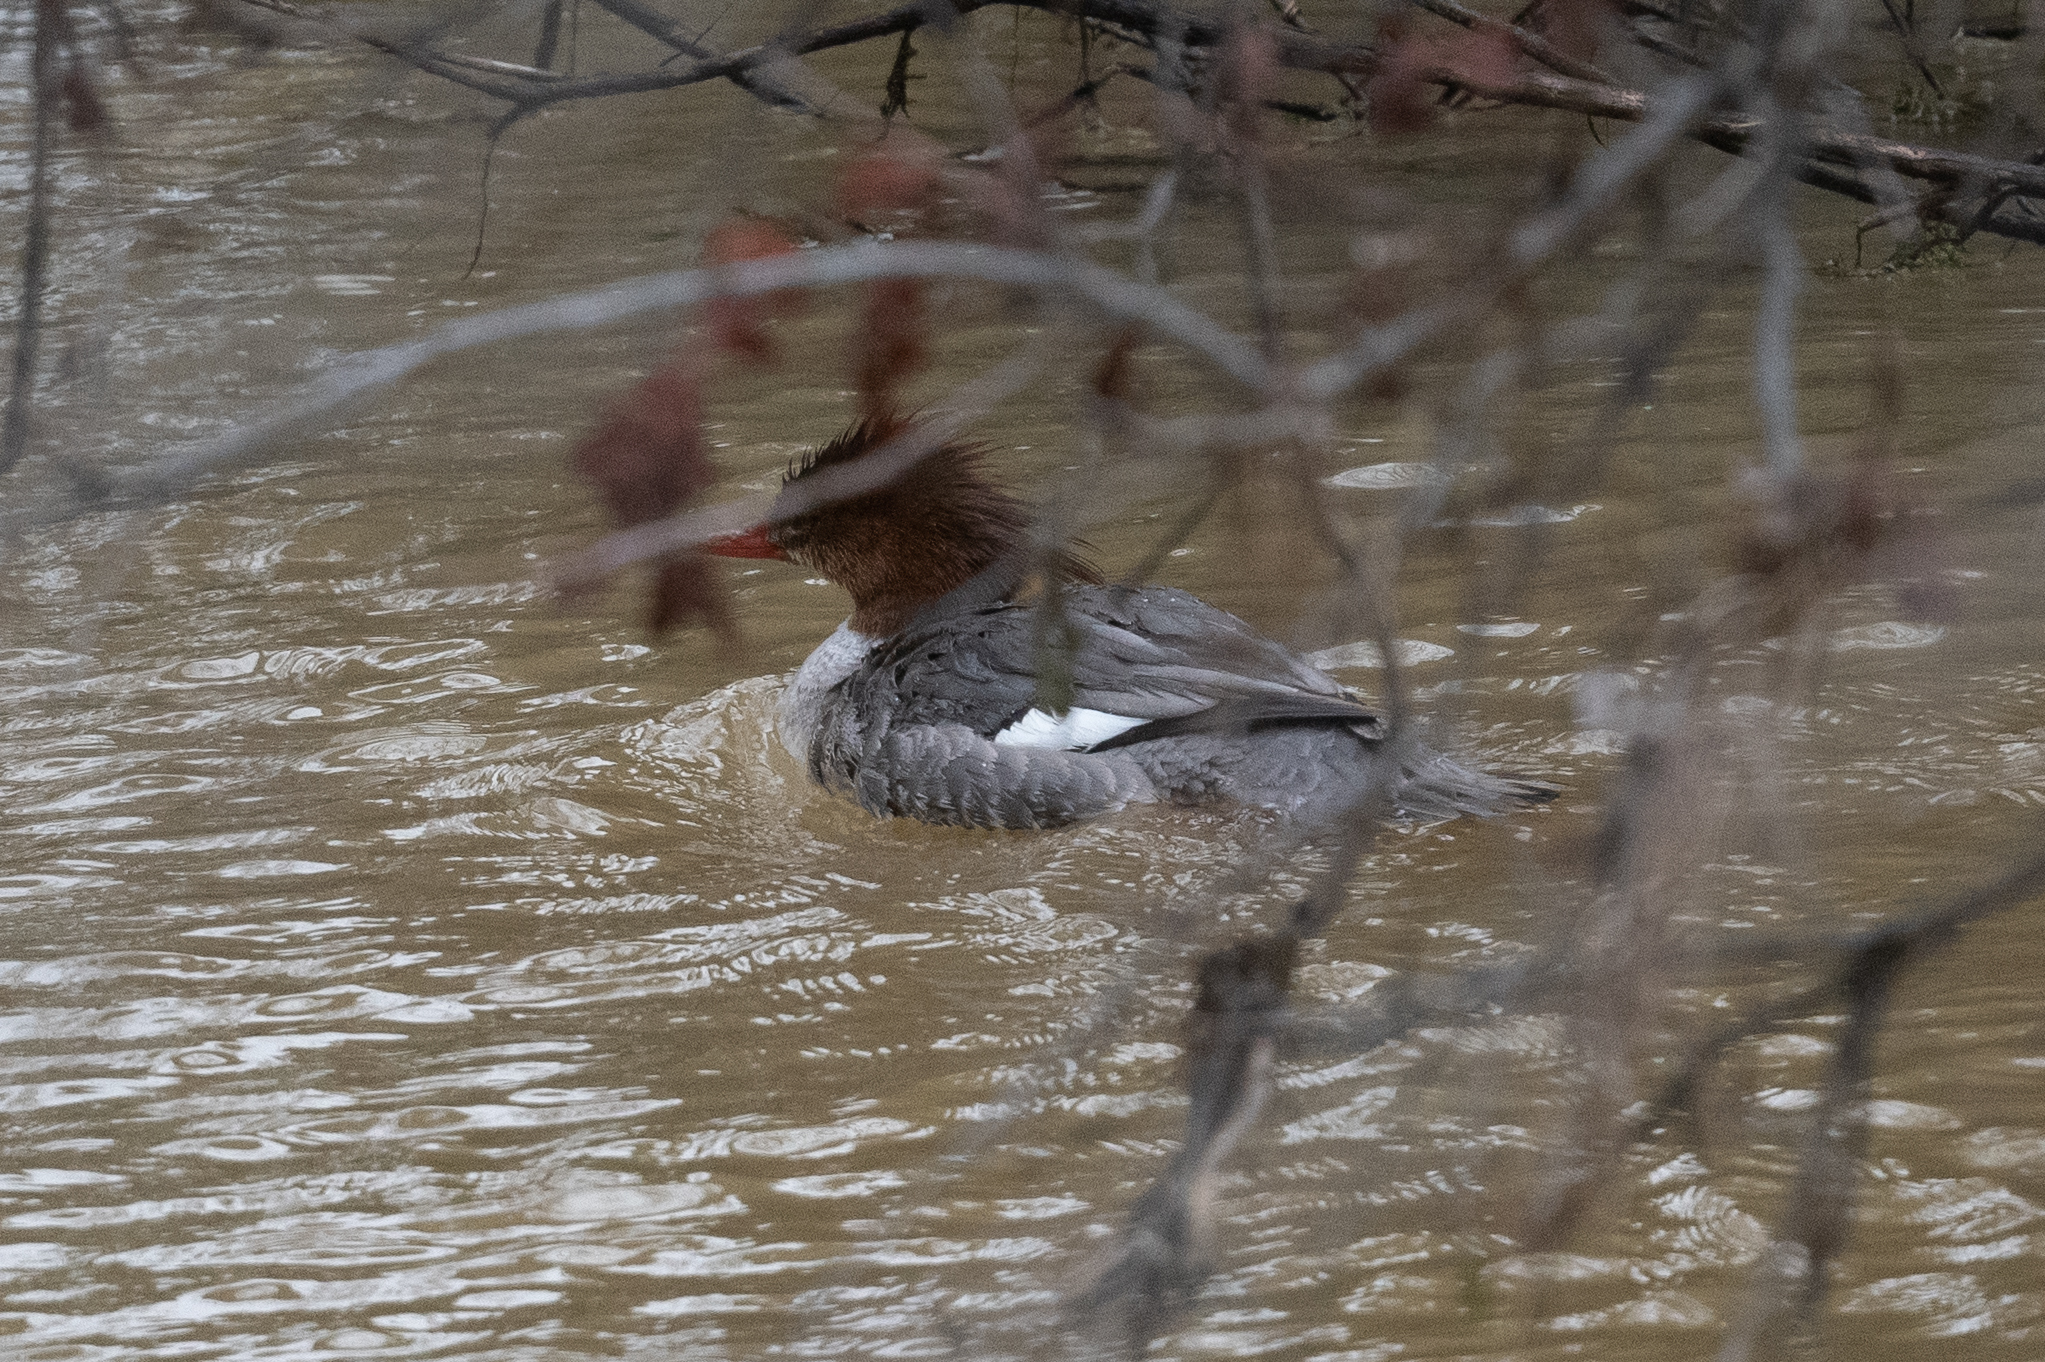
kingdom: Animalia
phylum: Chordata
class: Aves
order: Anseriformes
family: Anatidae
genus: Mergus
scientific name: Mergus merganser
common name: Common merganser
